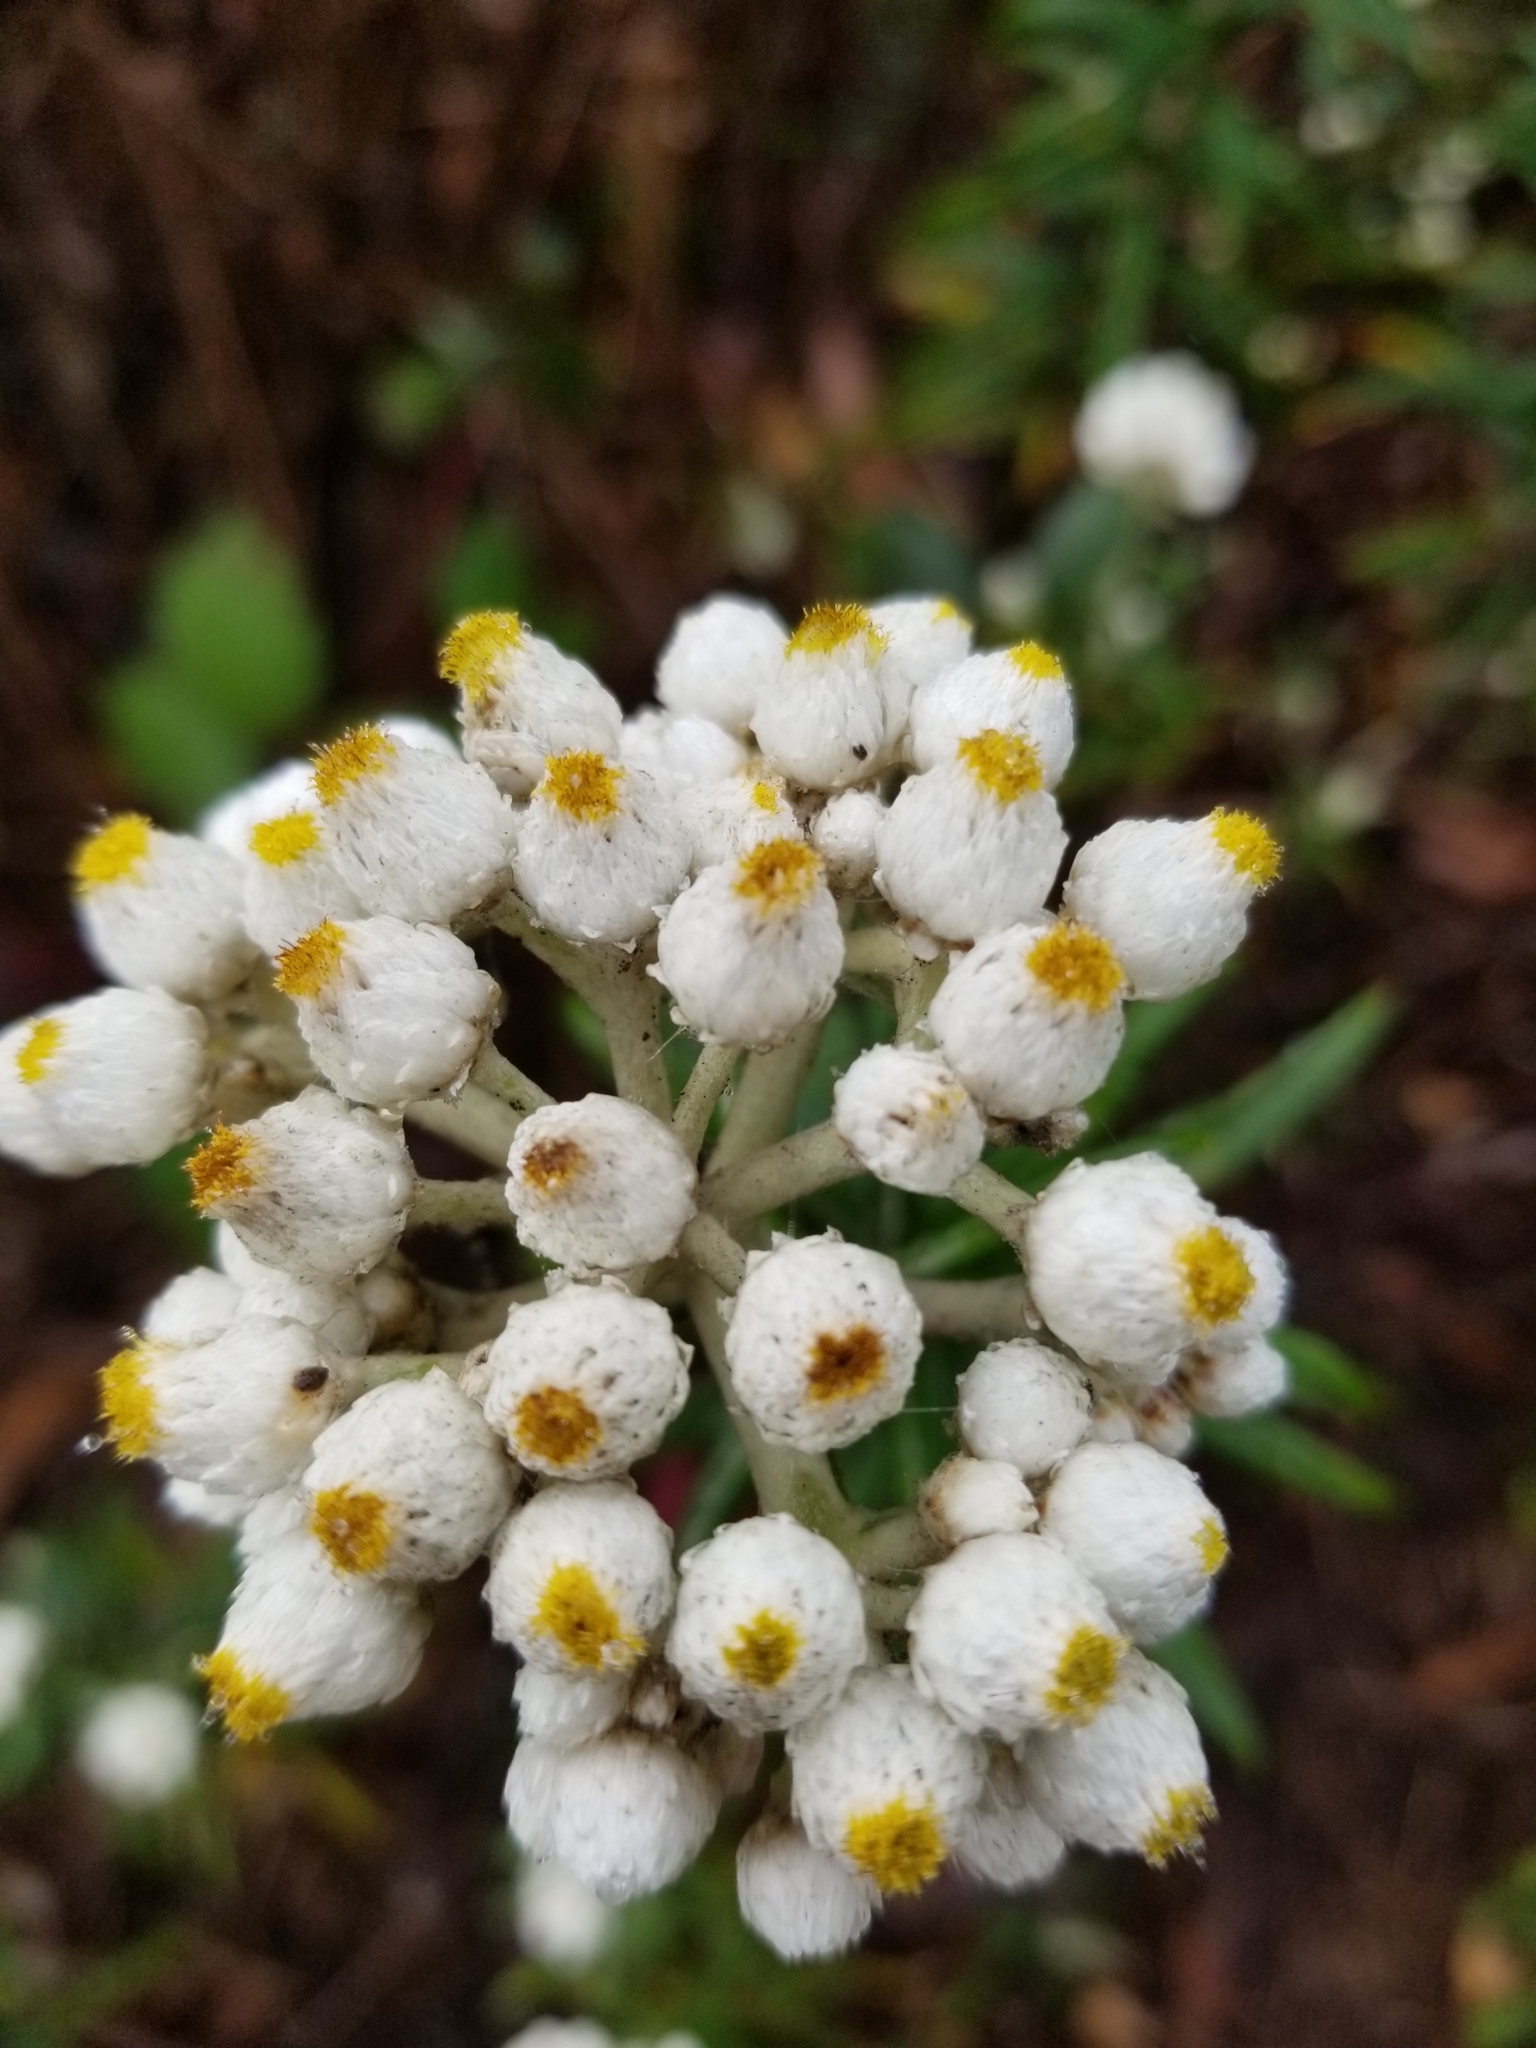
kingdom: Plantae
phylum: Tracheophyta
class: Magnoliopsida
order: Asterales
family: Asteraceae
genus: Anaphalis
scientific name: Anaphalis margaritacea
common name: Pearly everlasting
